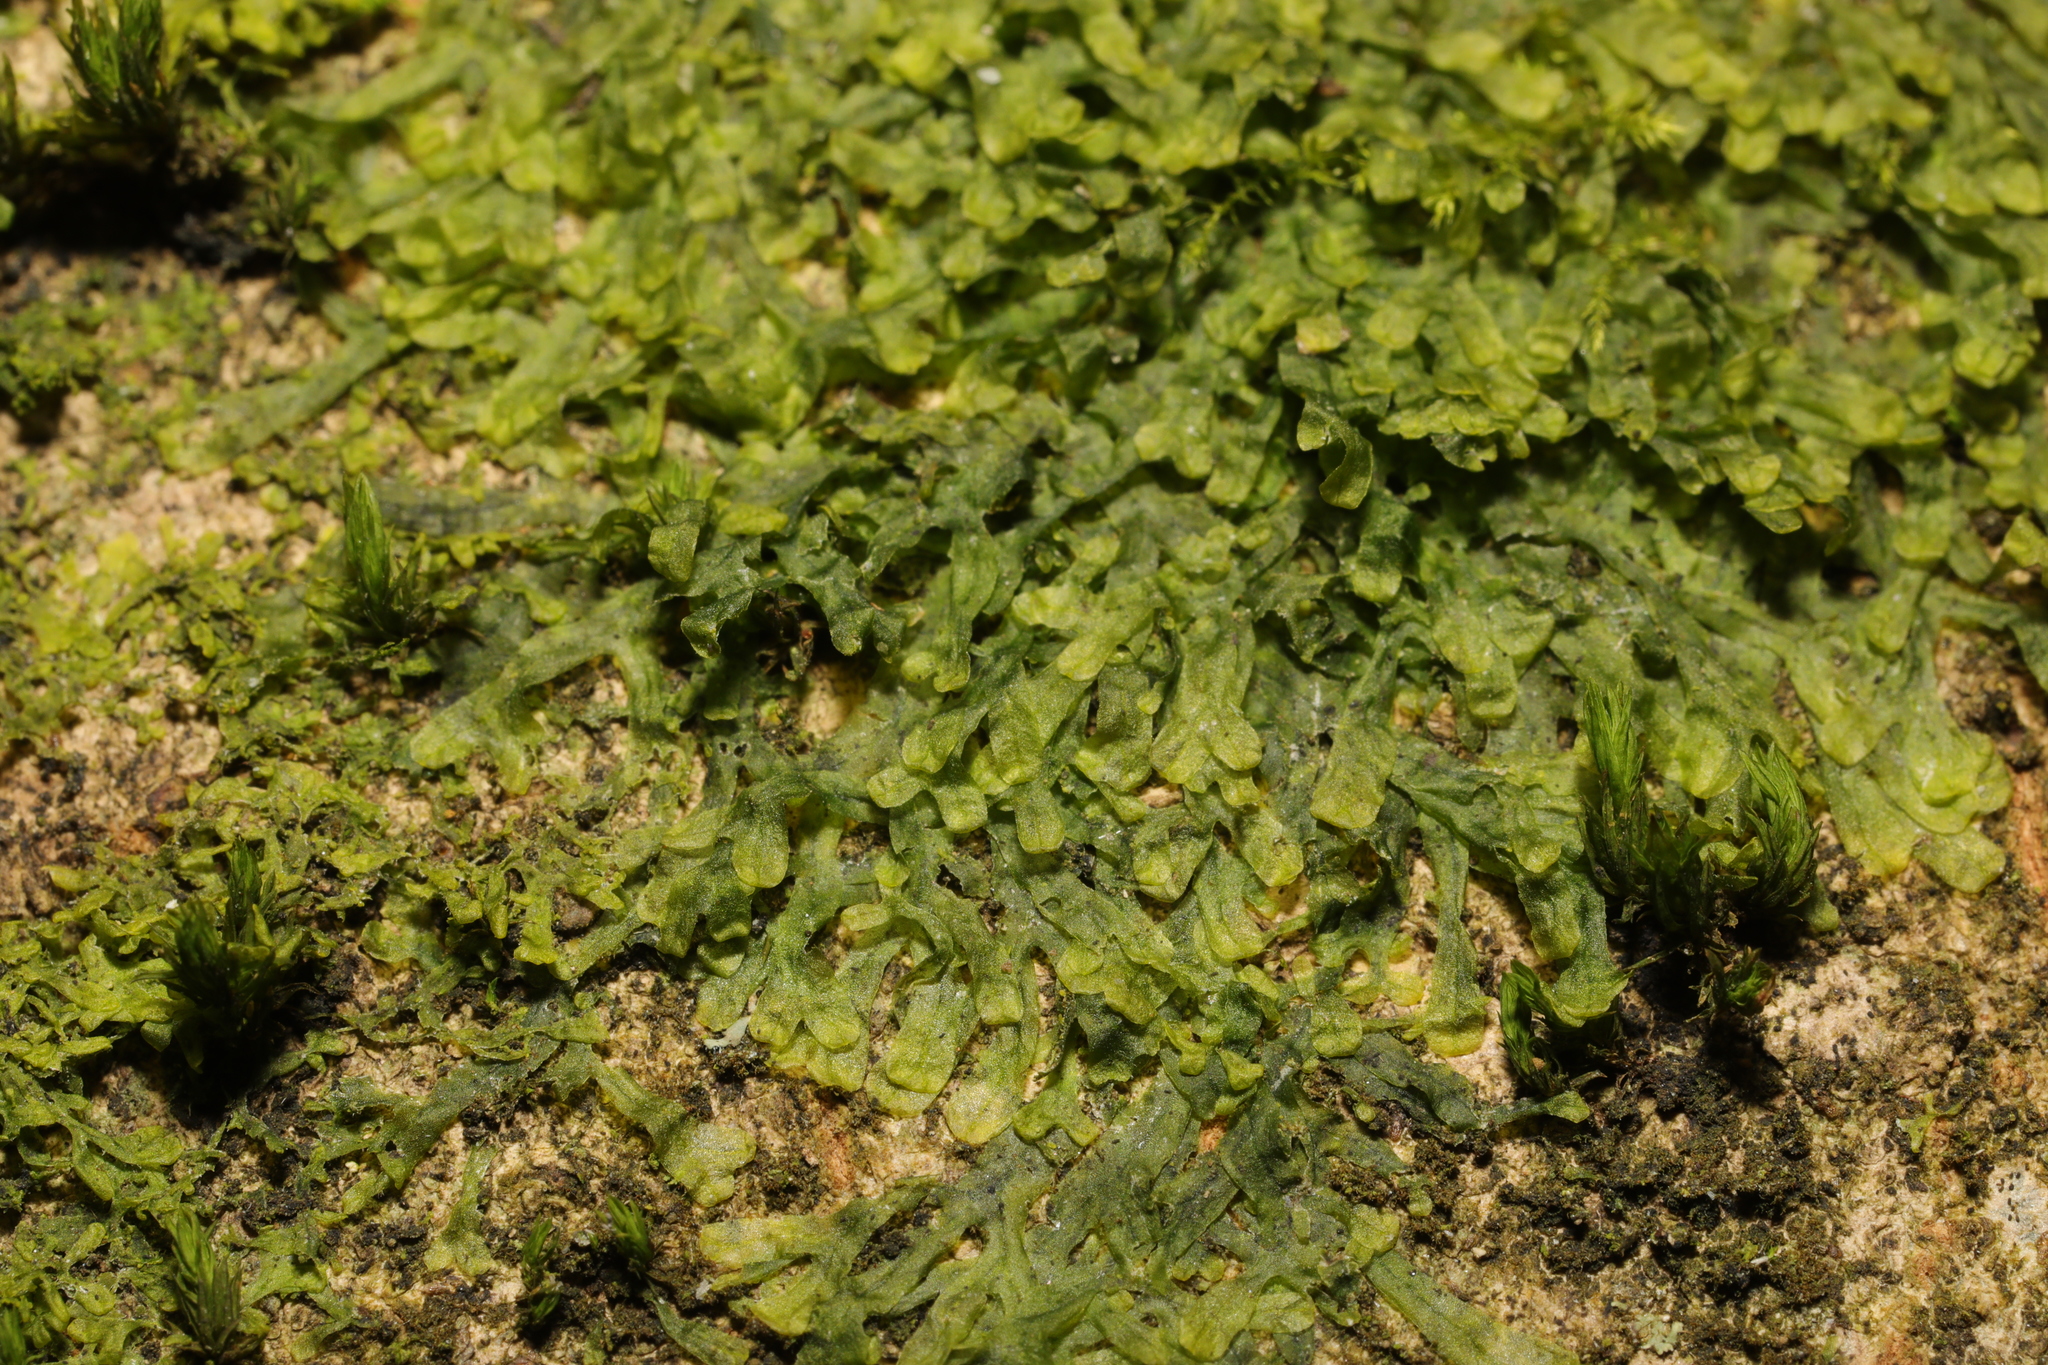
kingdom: Plantae
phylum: Marchantiophyta
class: Jungermanniopsida
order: Metzgeriales
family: Metzgeriaceae
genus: Metzgeria
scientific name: Metzgeria furcata
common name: Forked veilwort
